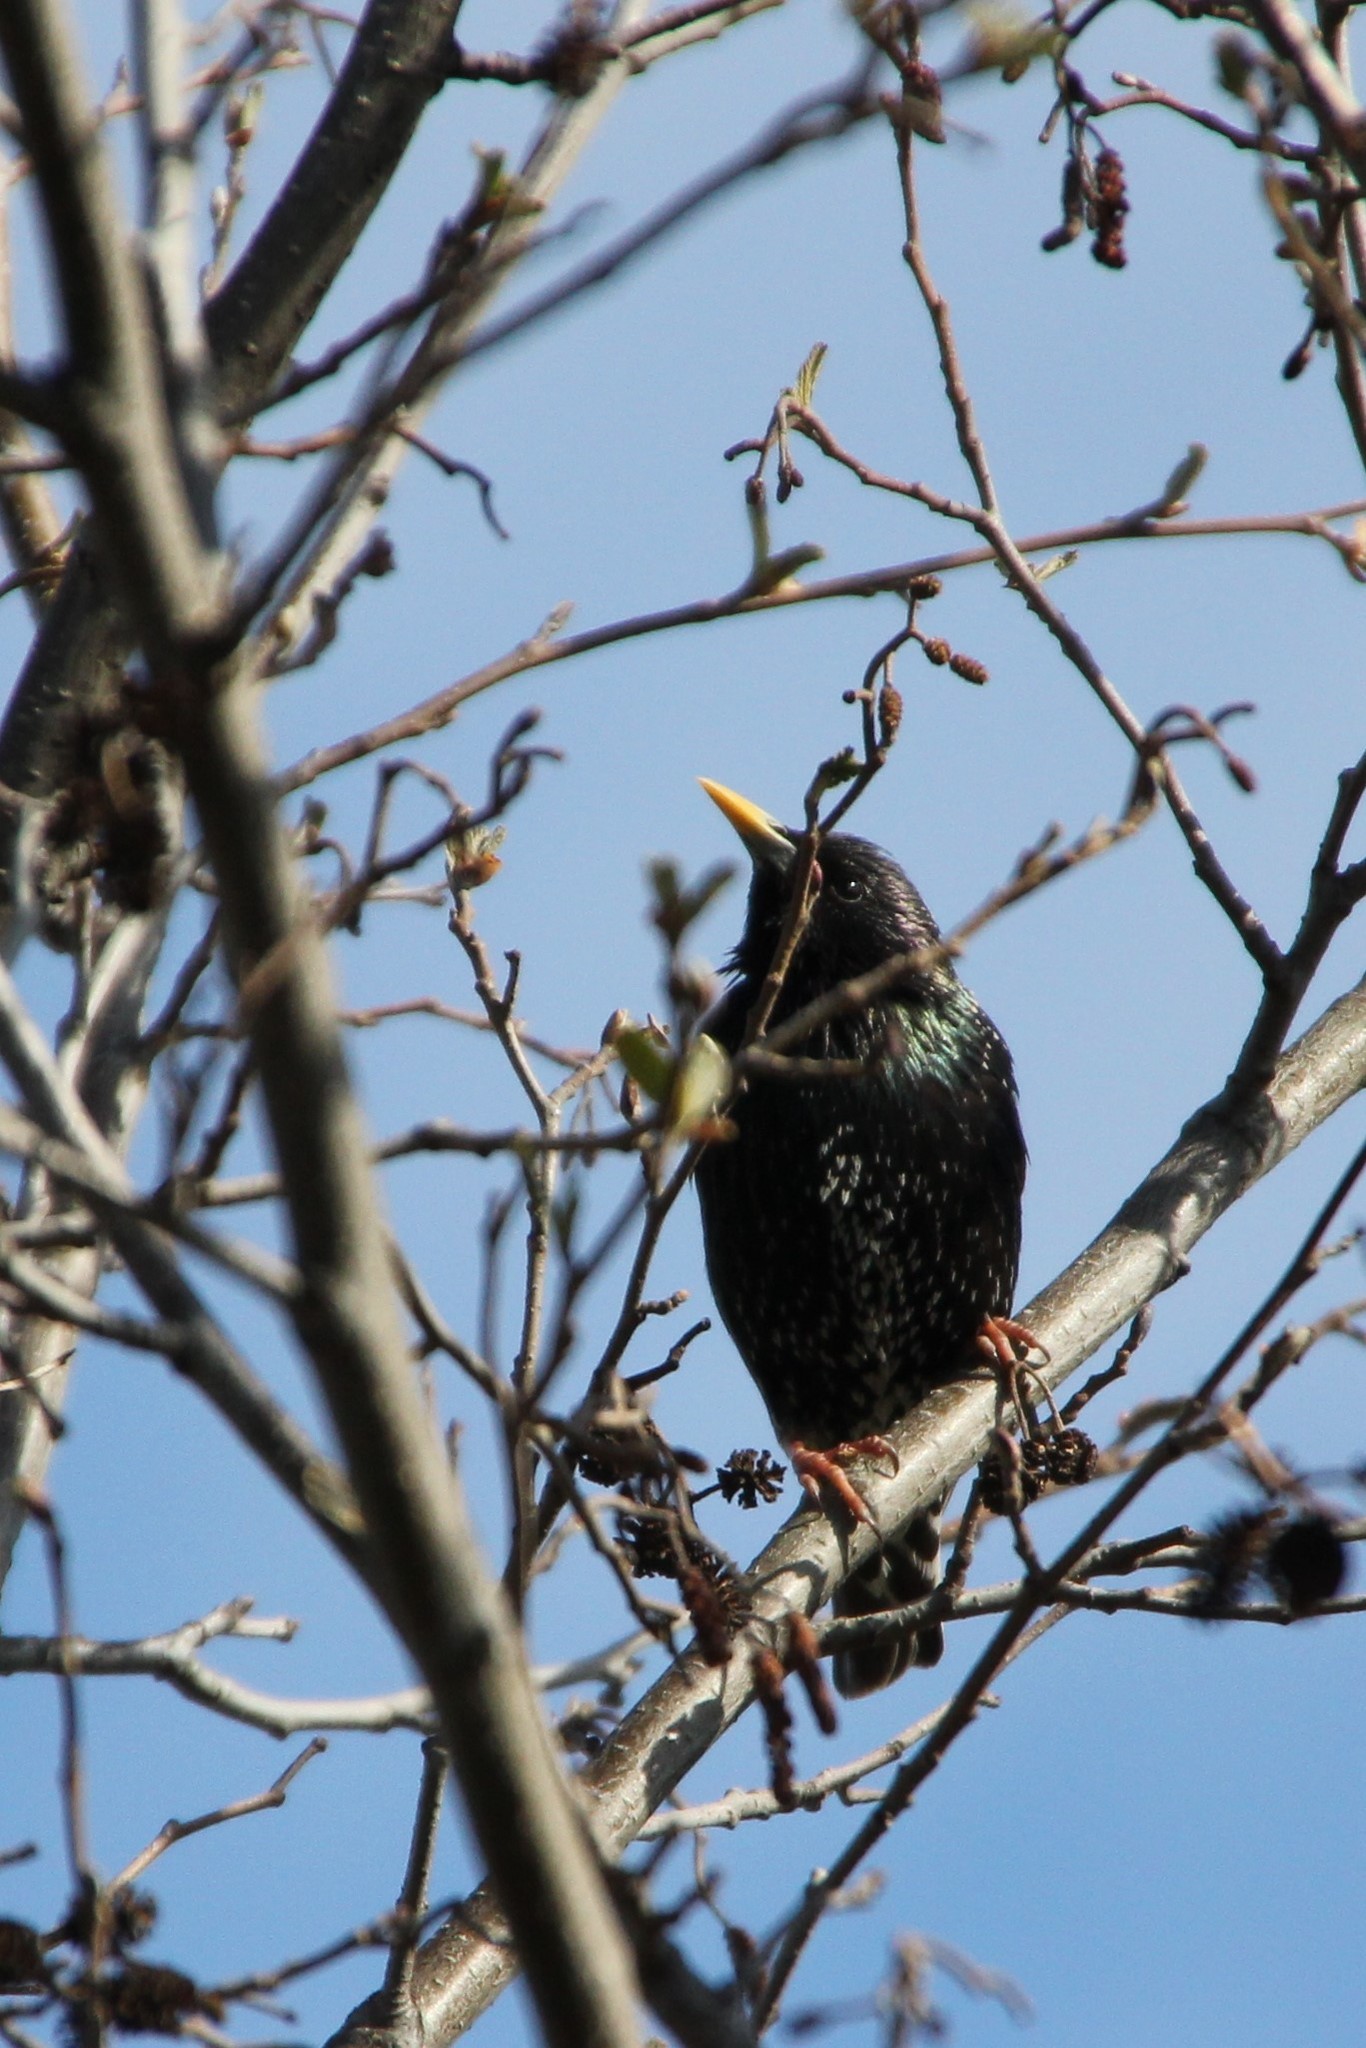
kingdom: Animalia
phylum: Chordata
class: Aves
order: Passeriformes
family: Sturnidae
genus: Sturnus
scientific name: Sturnus vulgaris
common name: Common starling
